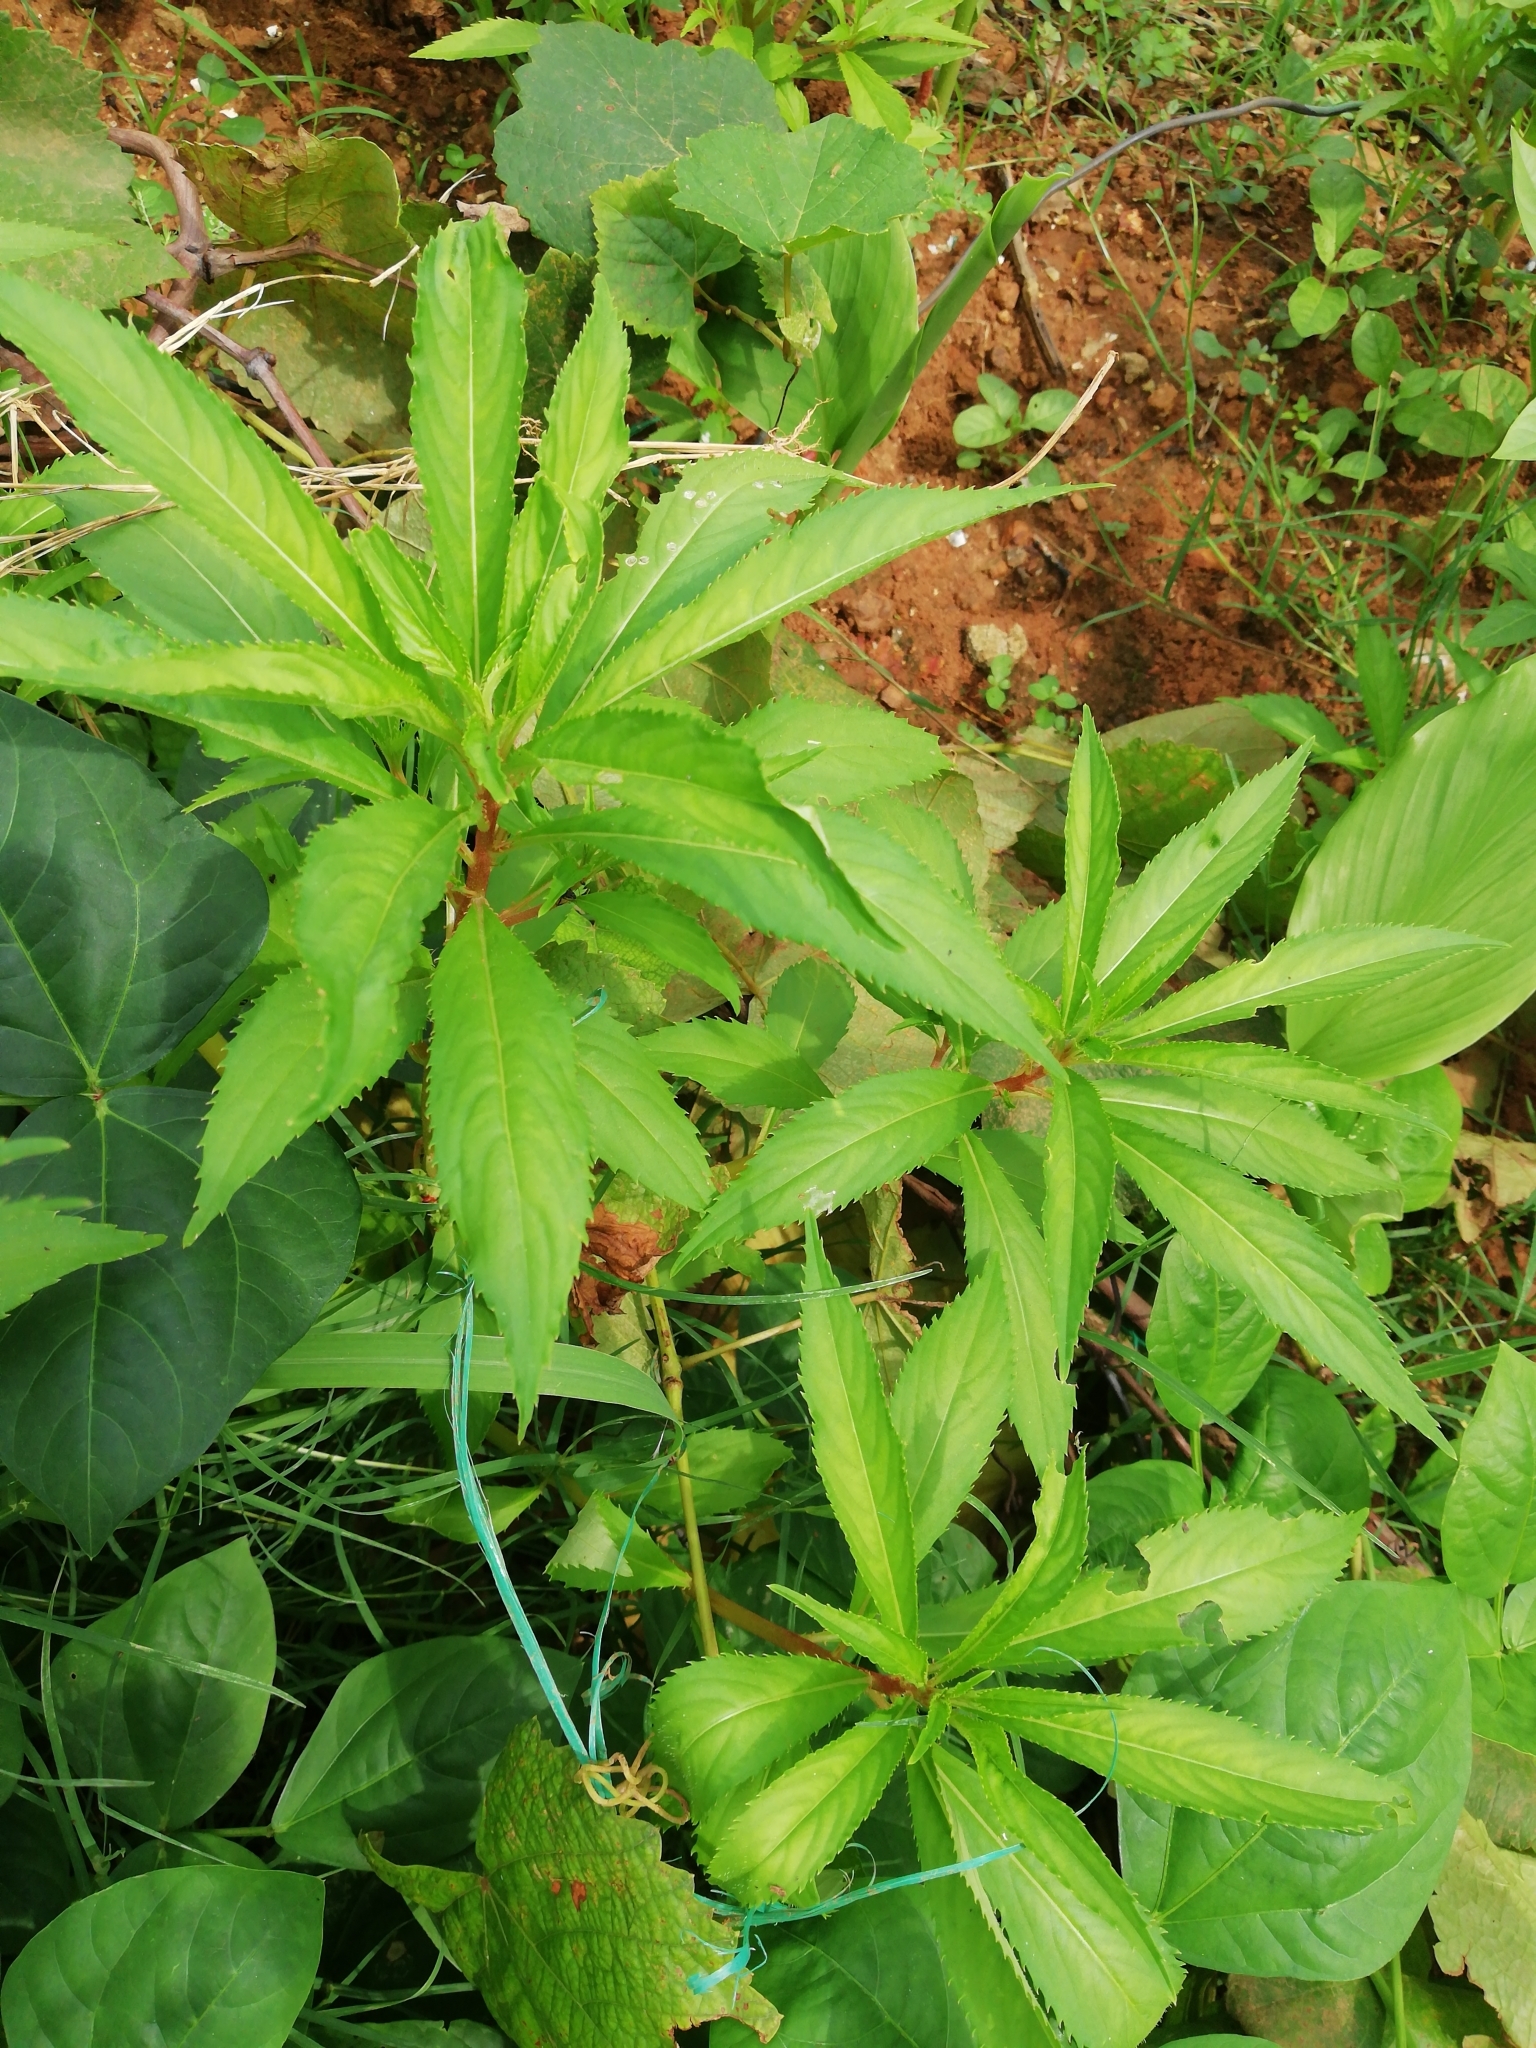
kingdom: Plantae
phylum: Tracheophyta
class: Magnoliopsida
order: Ericales
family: Balsaminaceae
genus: Impatiens
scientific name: Impatiens balsamina
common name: Balsam
